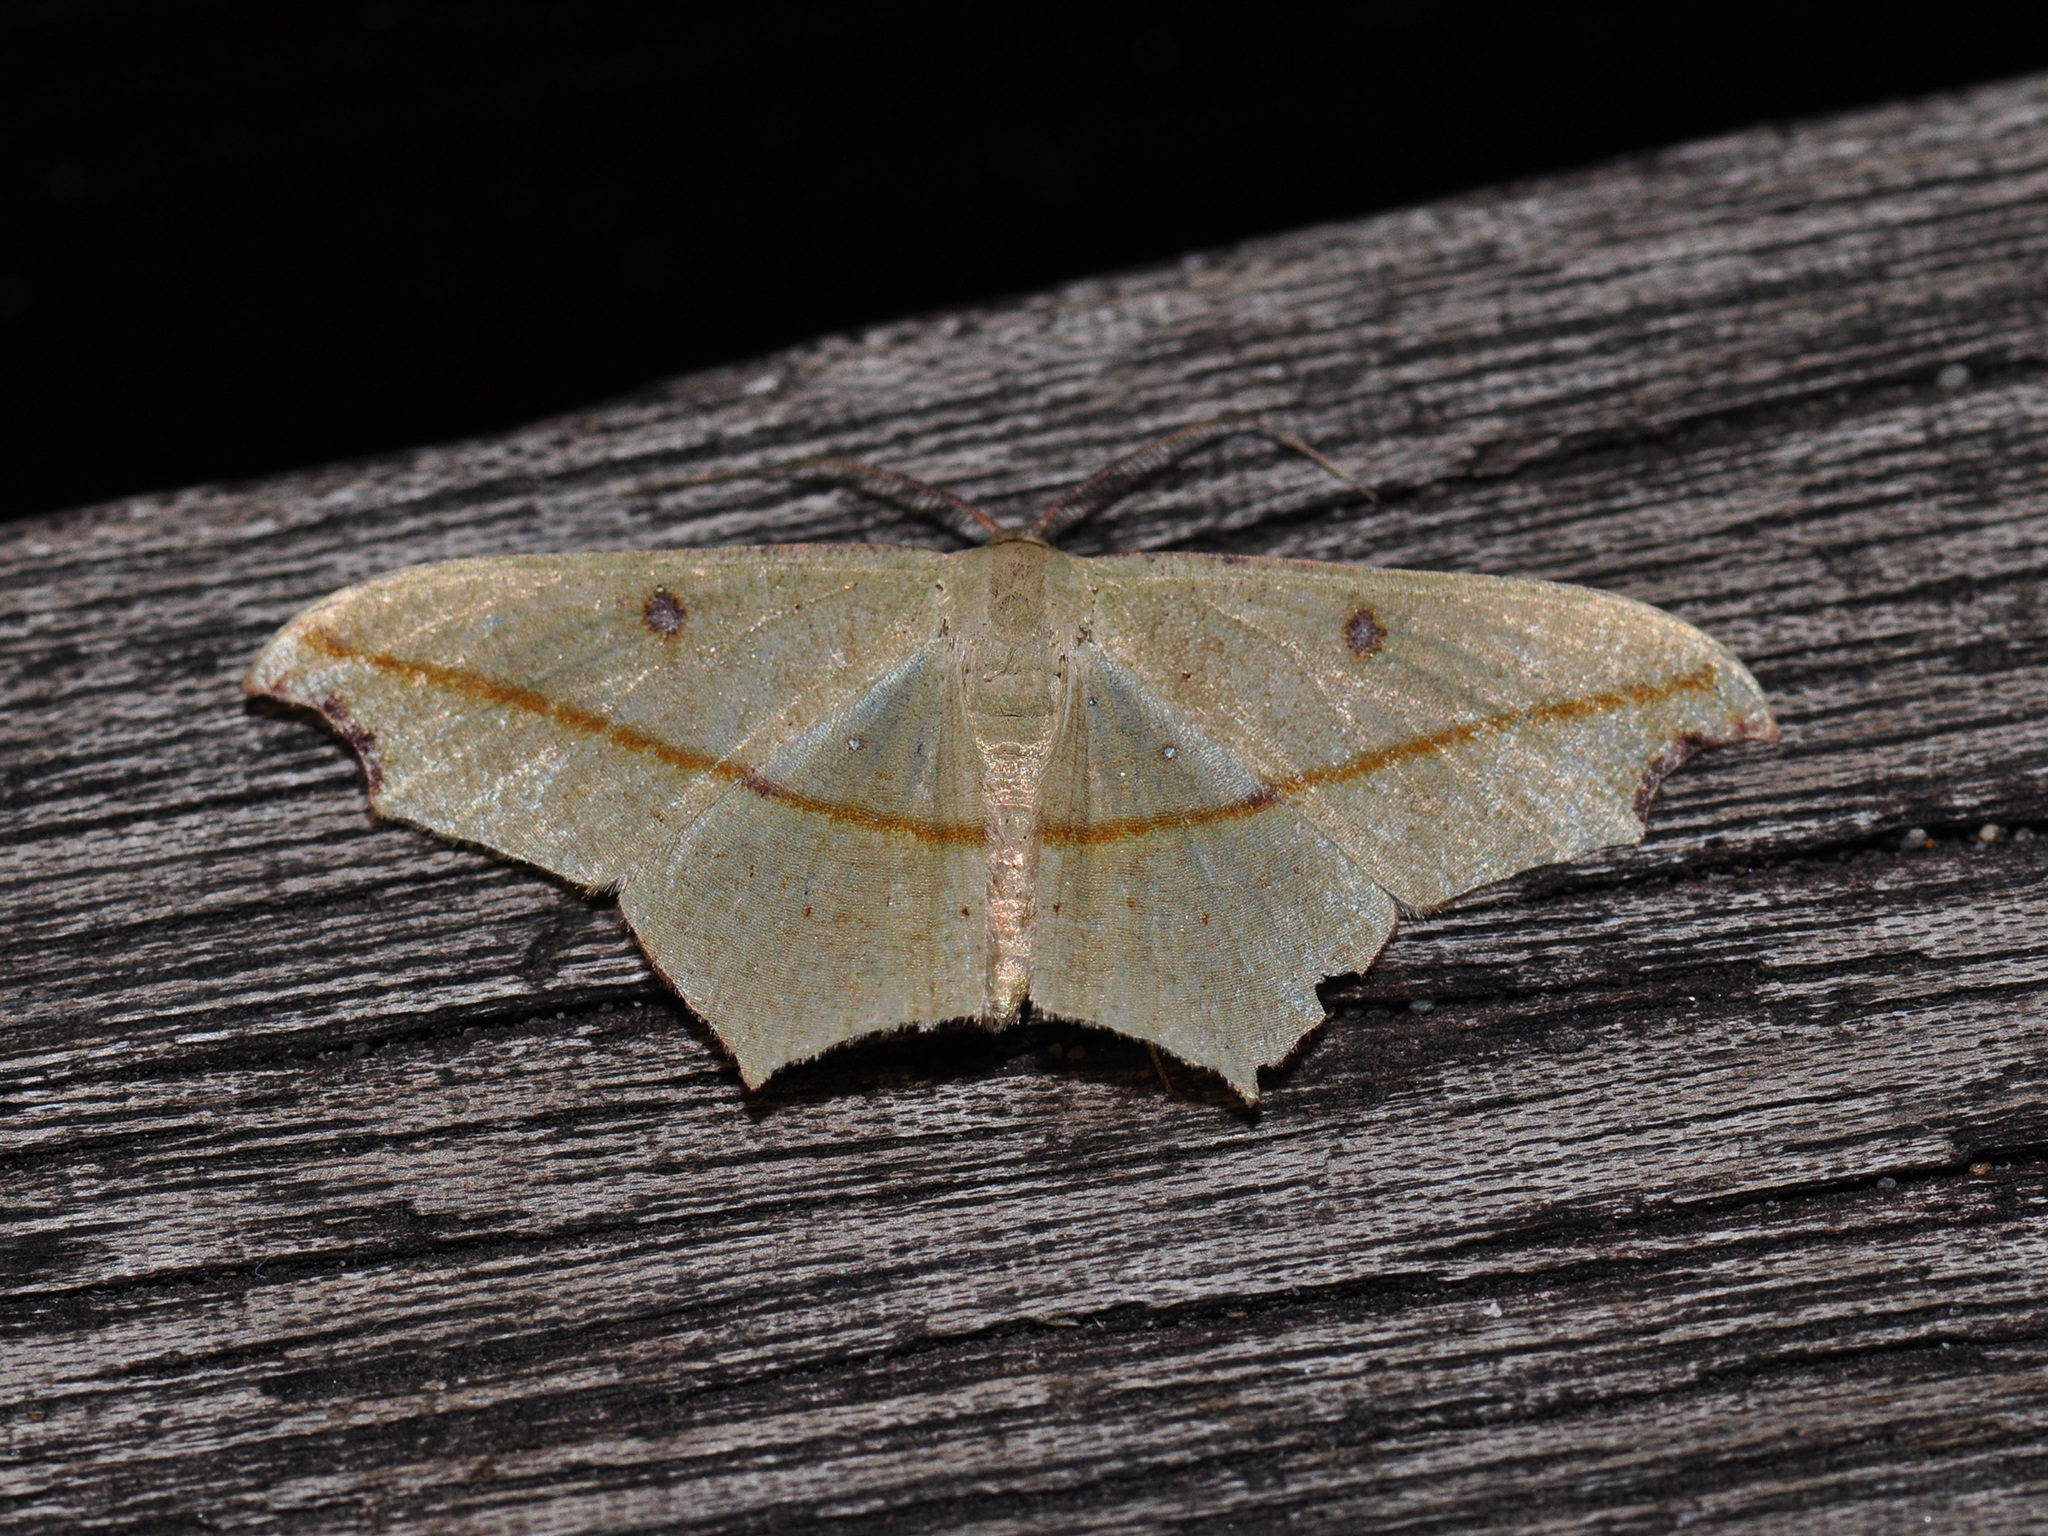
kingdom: Animalia
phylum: Arthropoda
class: Insecta
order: Lepidoptera
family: Geometridae
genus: Traminda
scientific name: Traminda aventiaria
